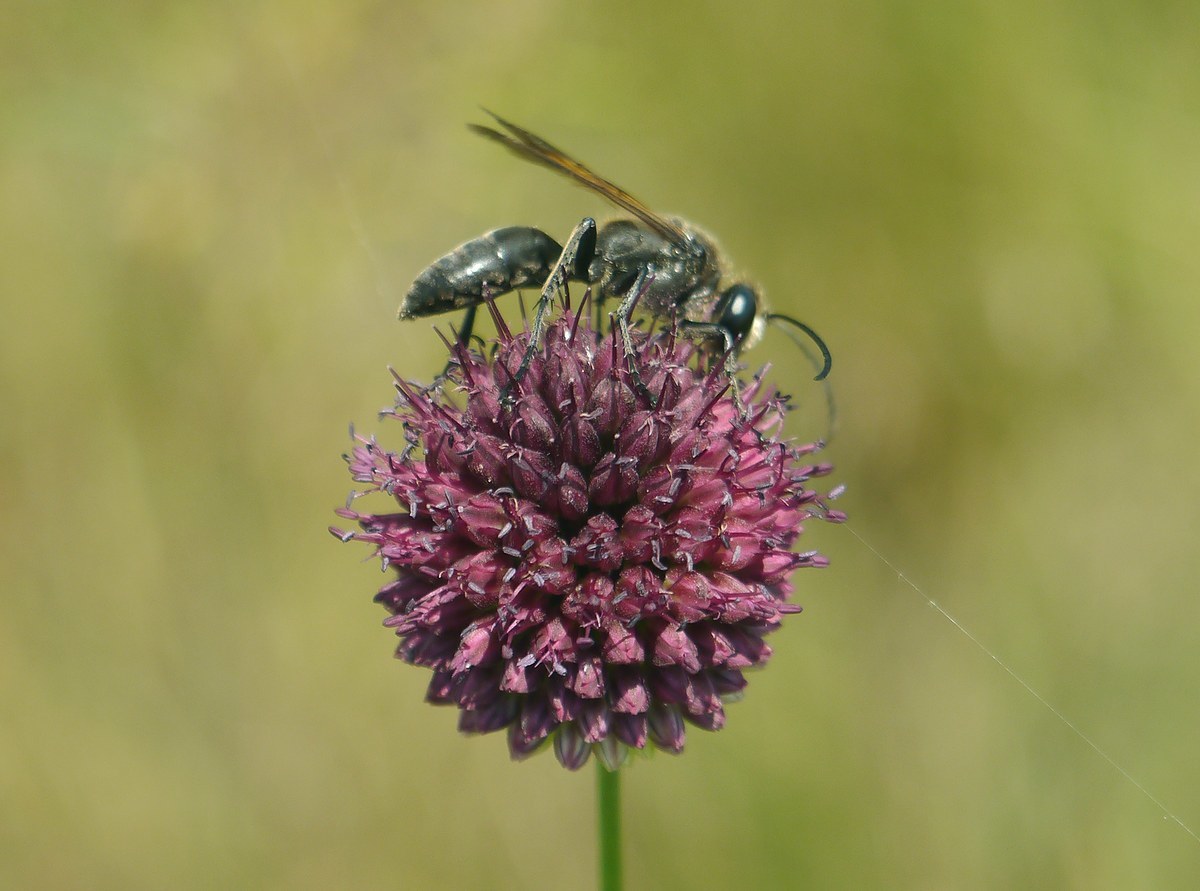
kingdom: Animalia
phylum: Arthropoda
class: Insecta
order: Hymenoptera
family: Sphecidae
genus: Sphex
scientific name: Sphex leuconotus
